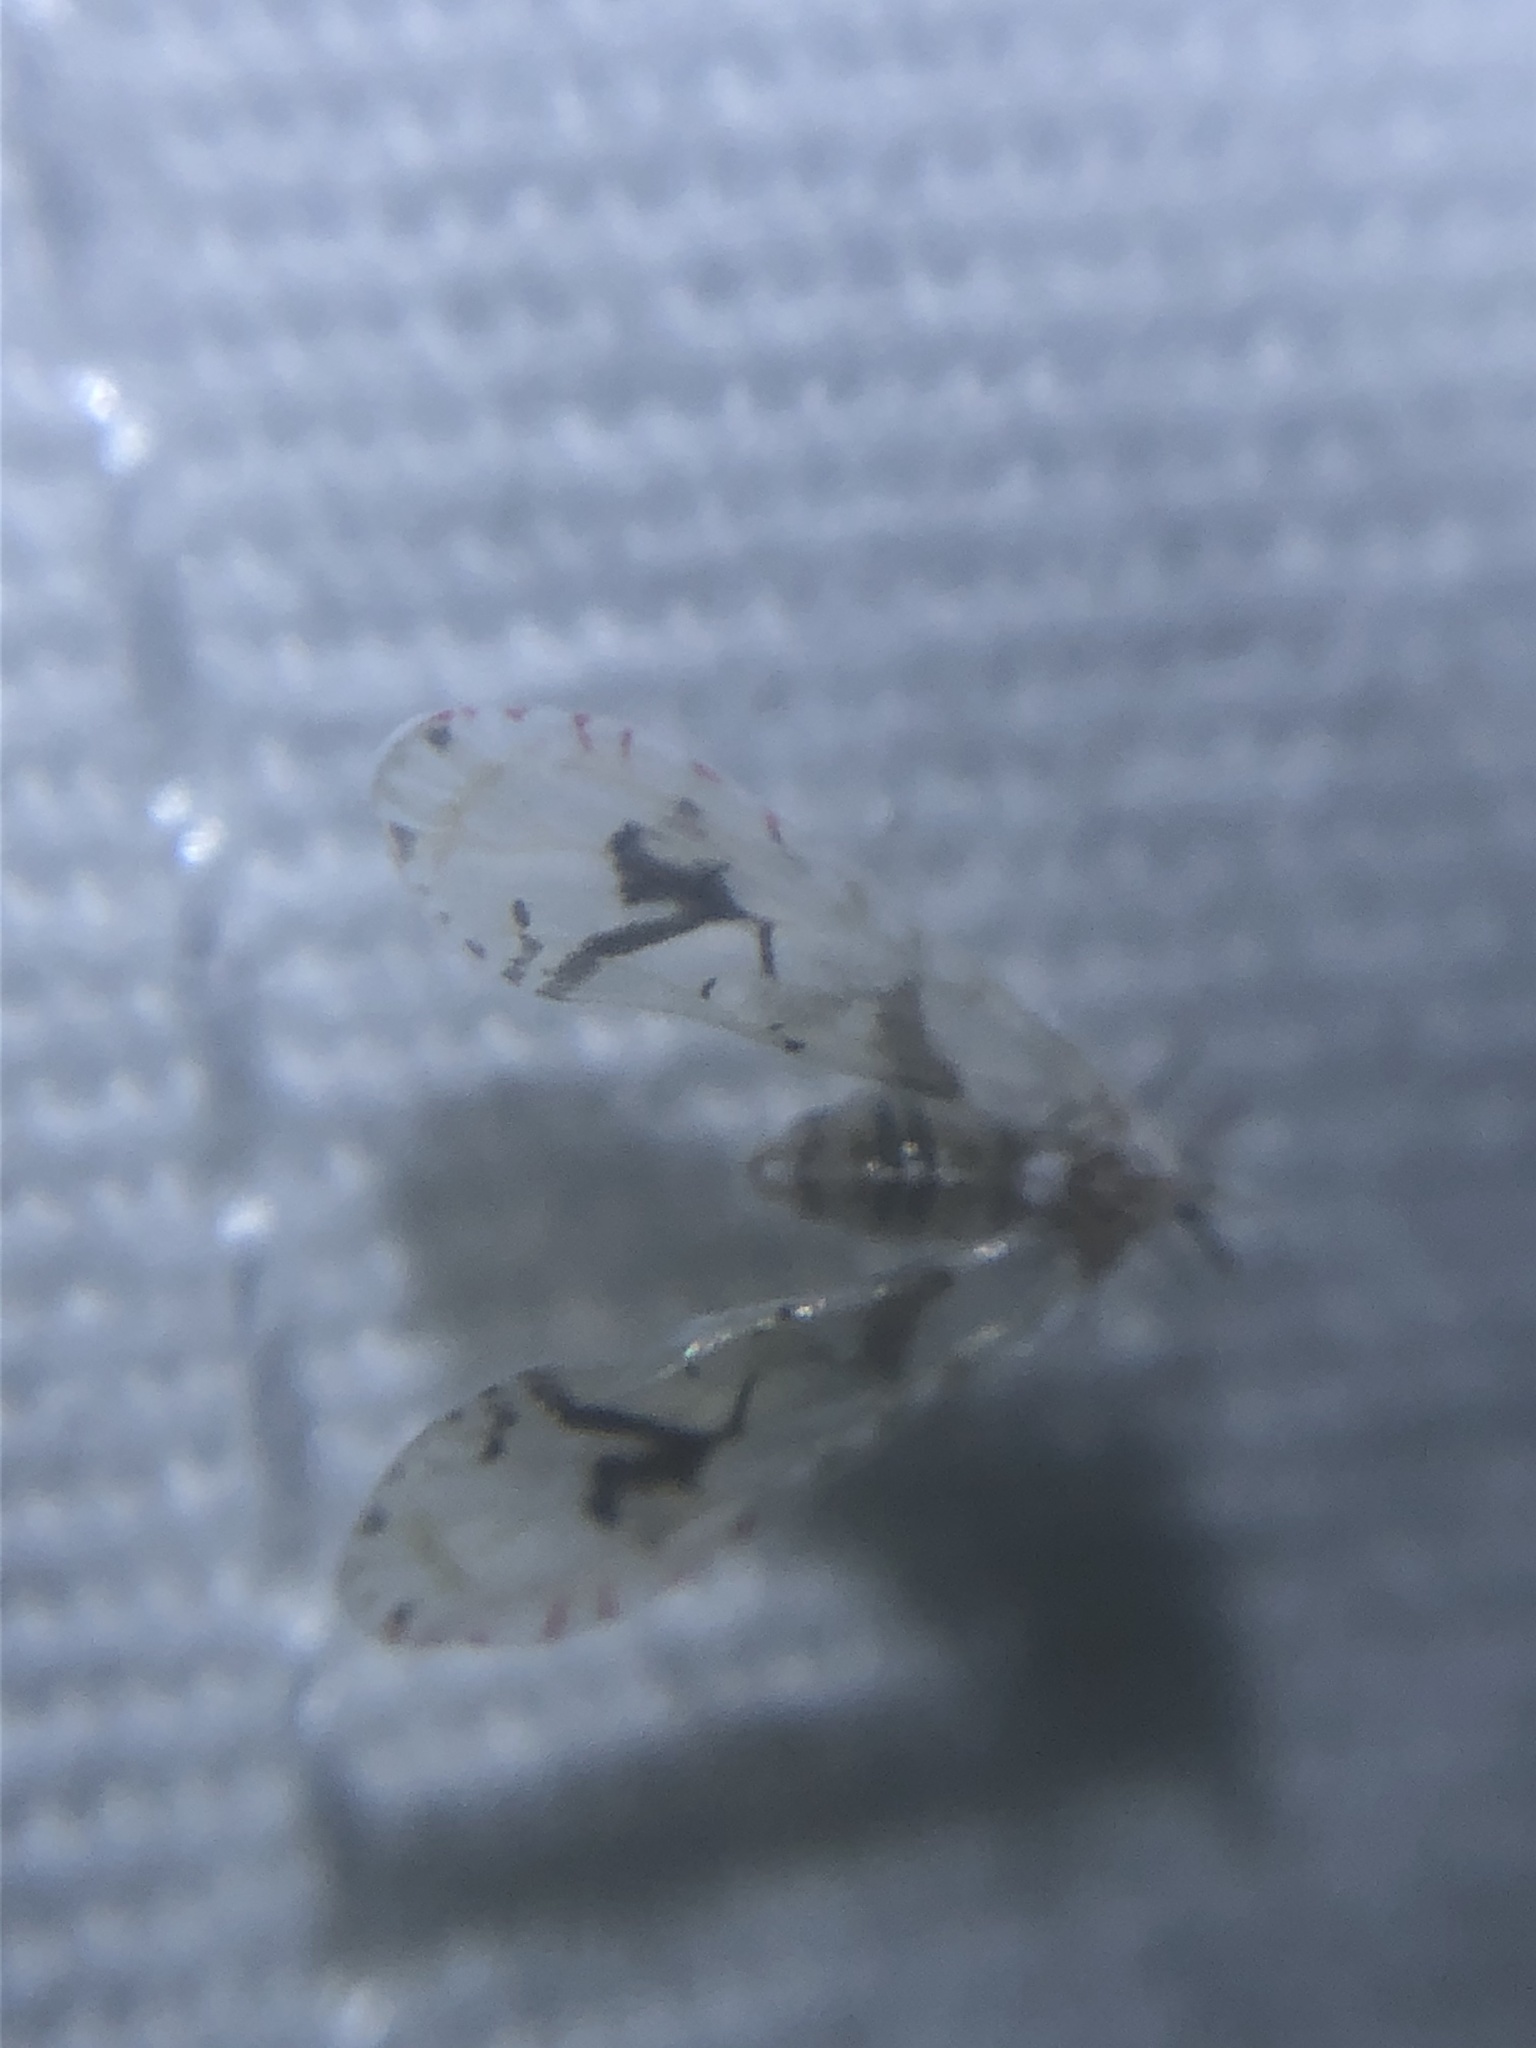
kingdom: Animalia
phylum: Arthropoda
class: Insecta
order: Hemiptera
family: Derbidae
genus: Anotia
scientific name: Anotia robertsonii
